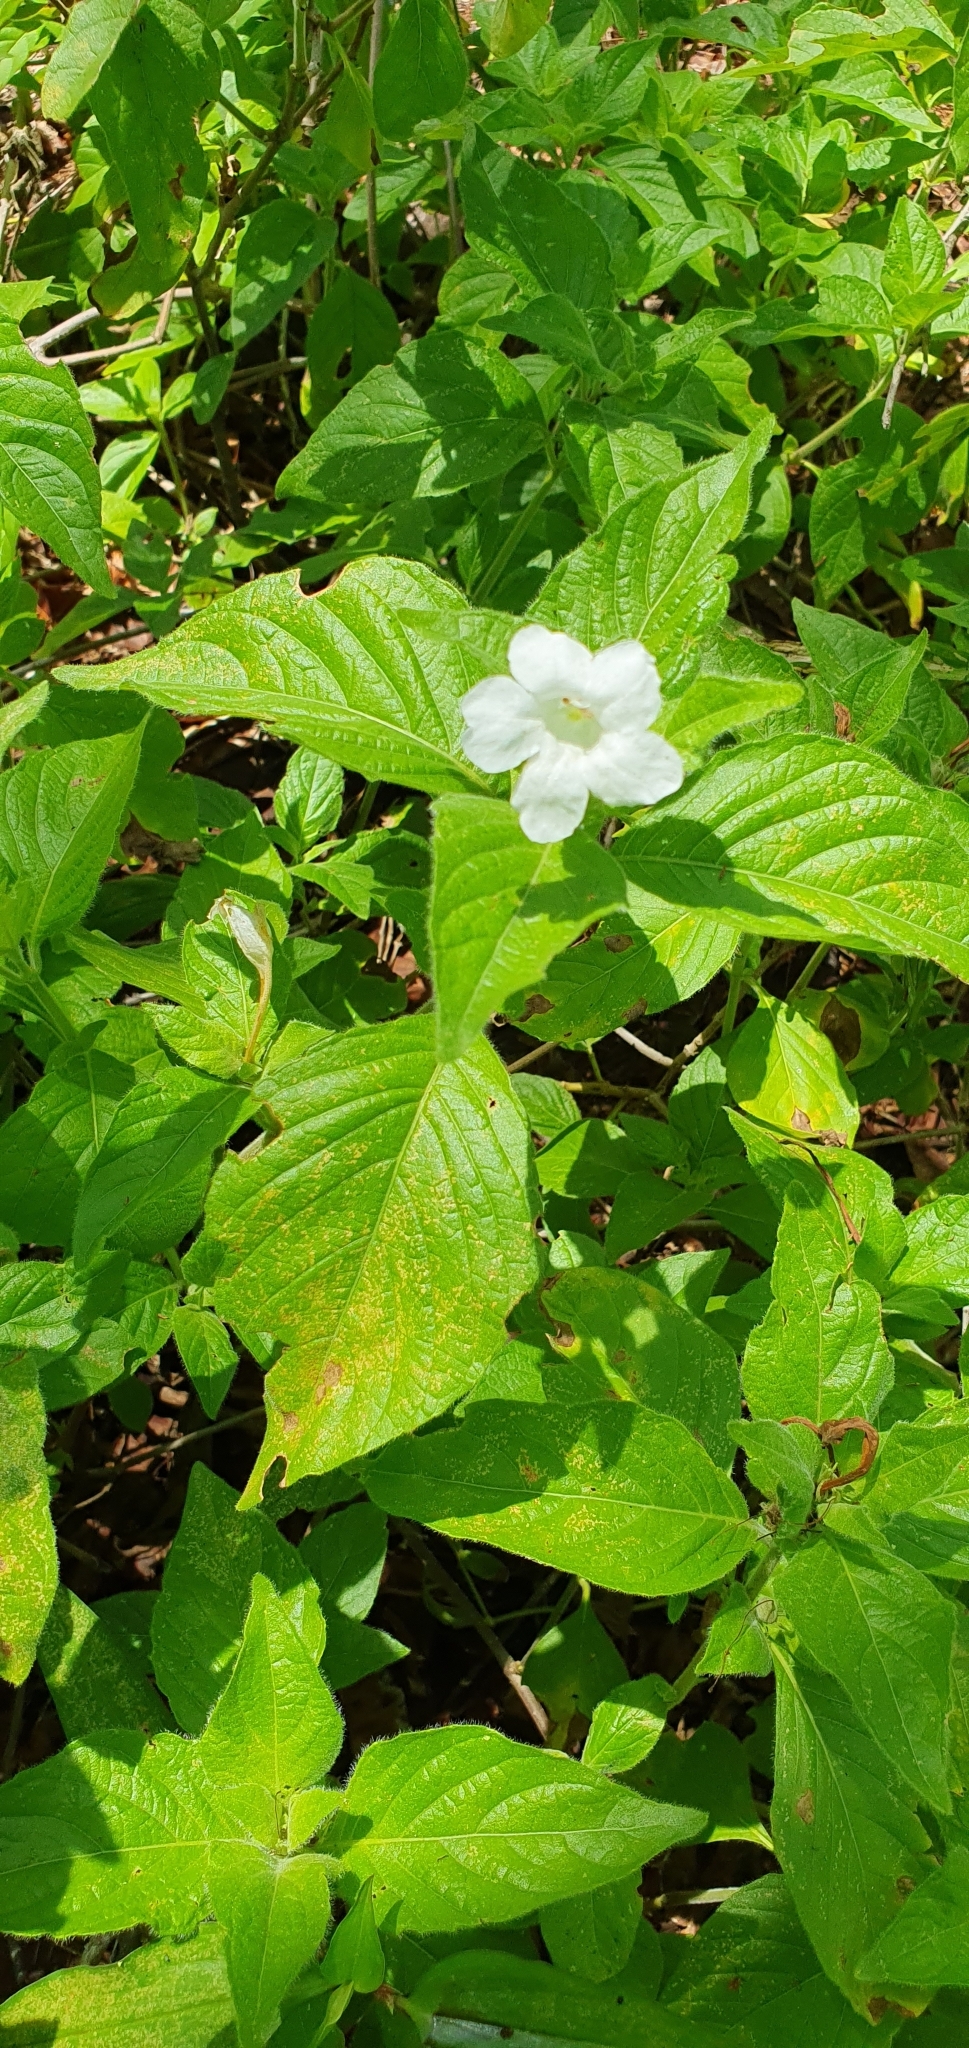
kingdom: Plantae
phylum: Tracheophyta
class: Magnoliopsida
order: Lamiales
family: Acanthaceae
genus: Ruellia
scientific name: Ruellia leucantha
